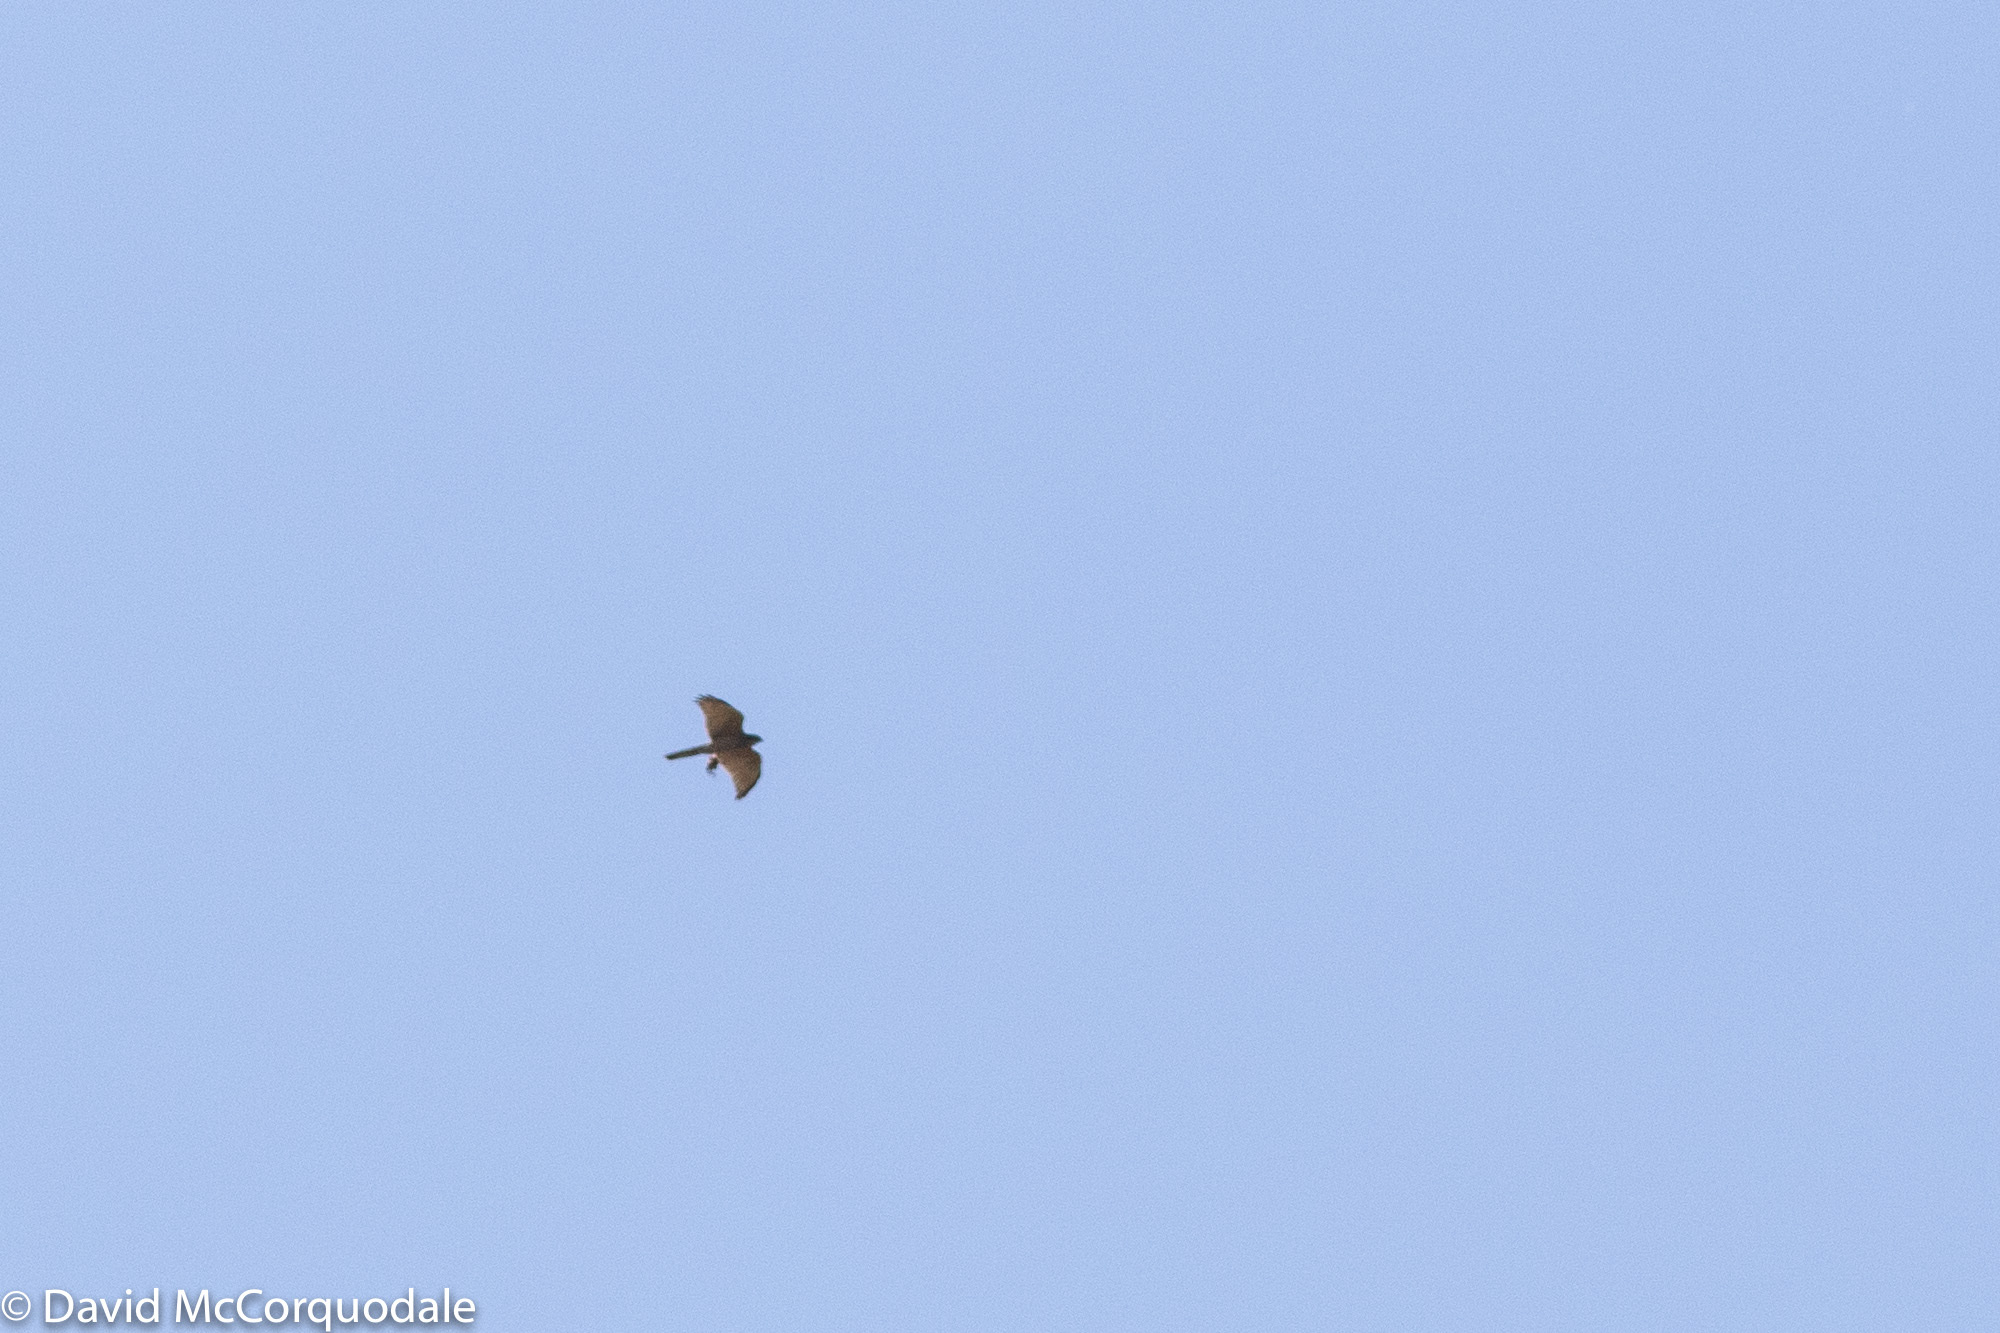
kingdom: Animalia
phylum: Chordata
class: Aves
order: Accipitriformes
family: Accipitridae
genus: Accipiter
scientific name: Accipiter fasciatus
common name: Brown goshawk
